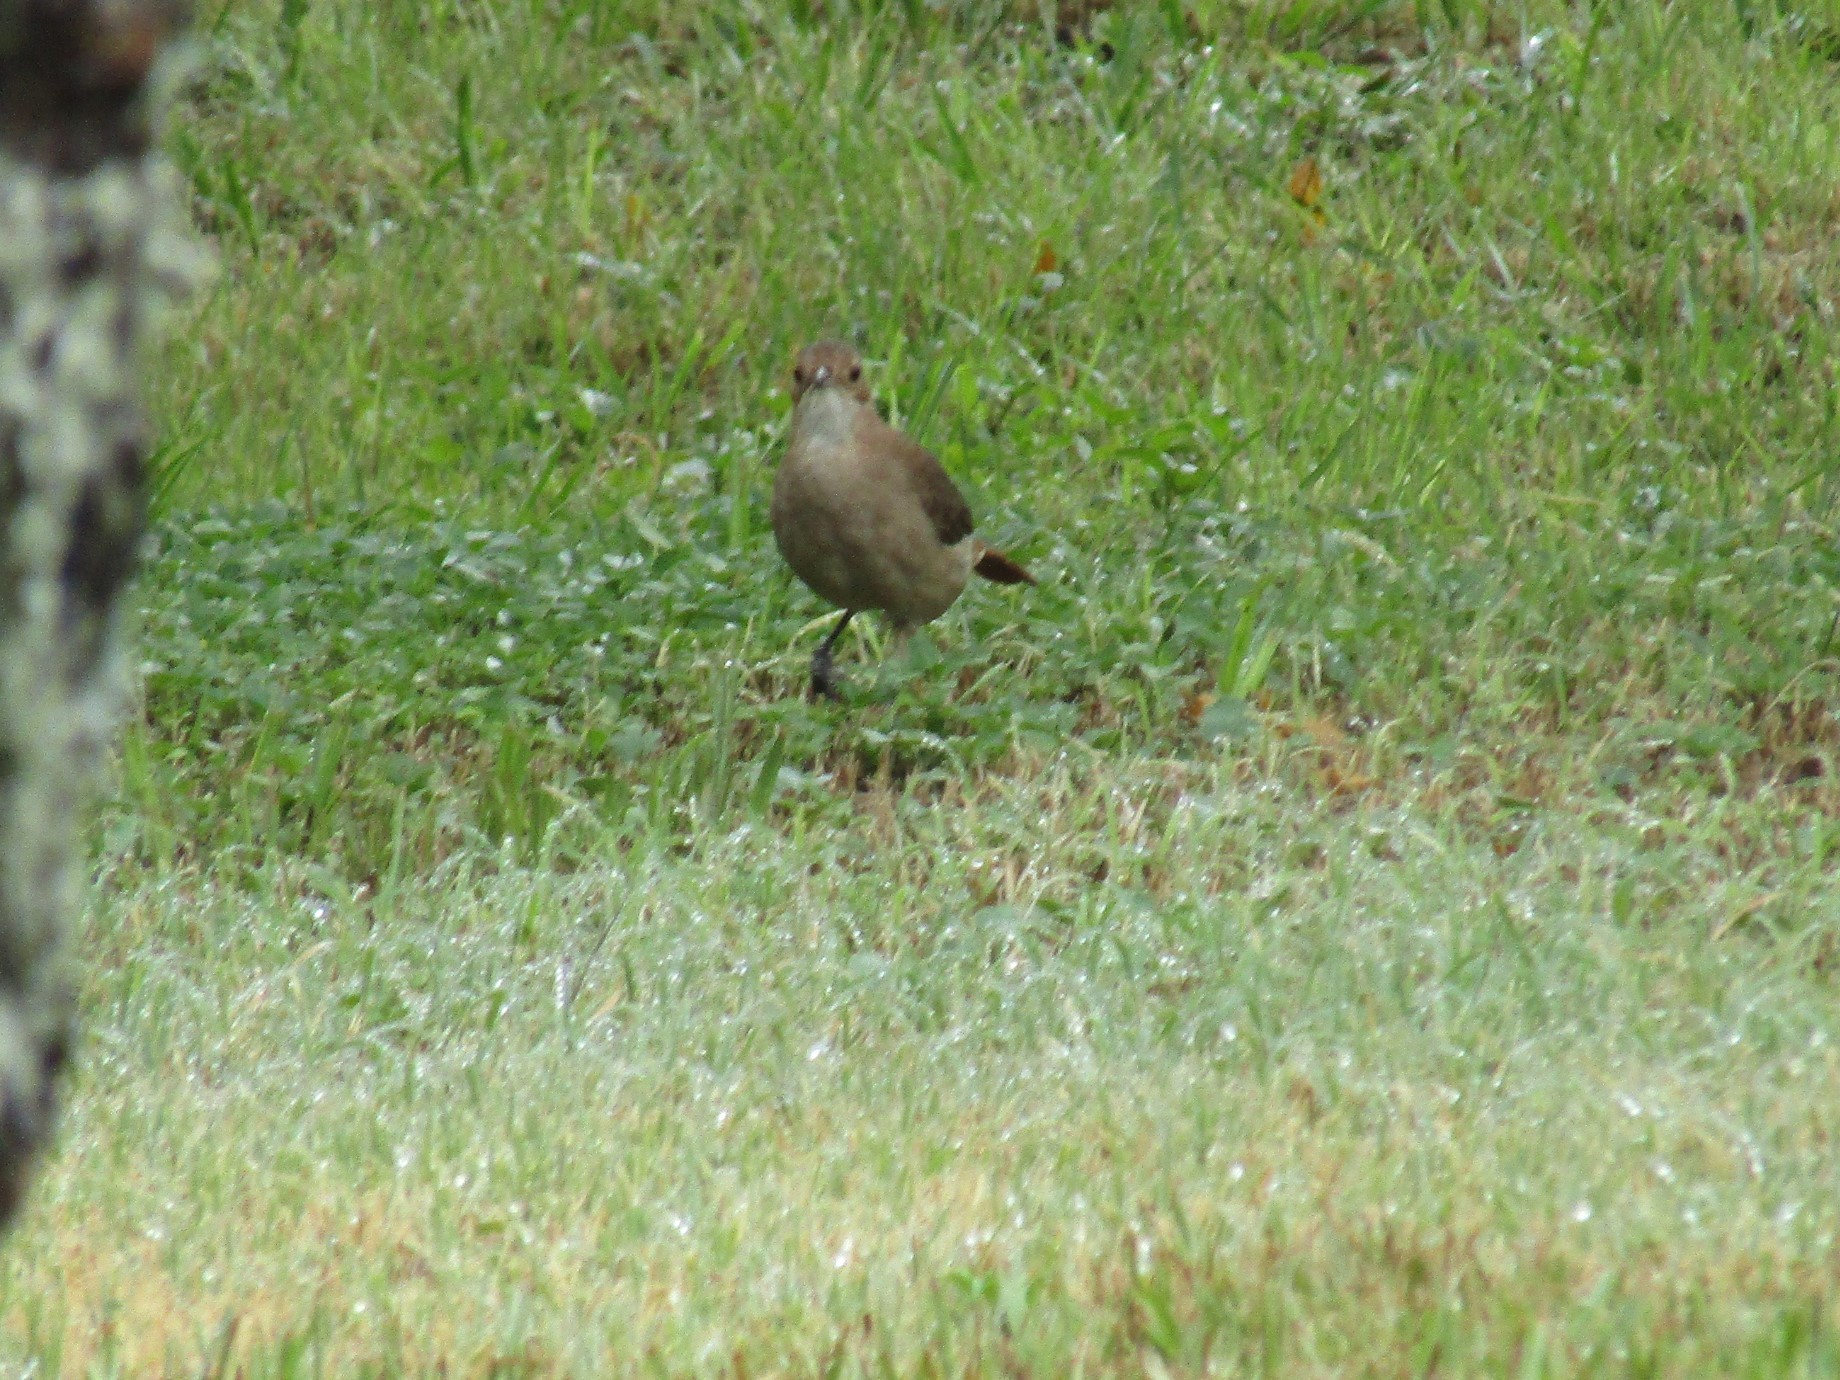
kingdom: Animalia
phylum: Chordata
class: Aves
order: Passeriformes
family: Furnariidae
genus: Furnarius
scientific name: Furnarius rufus
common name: Rufous hornero
